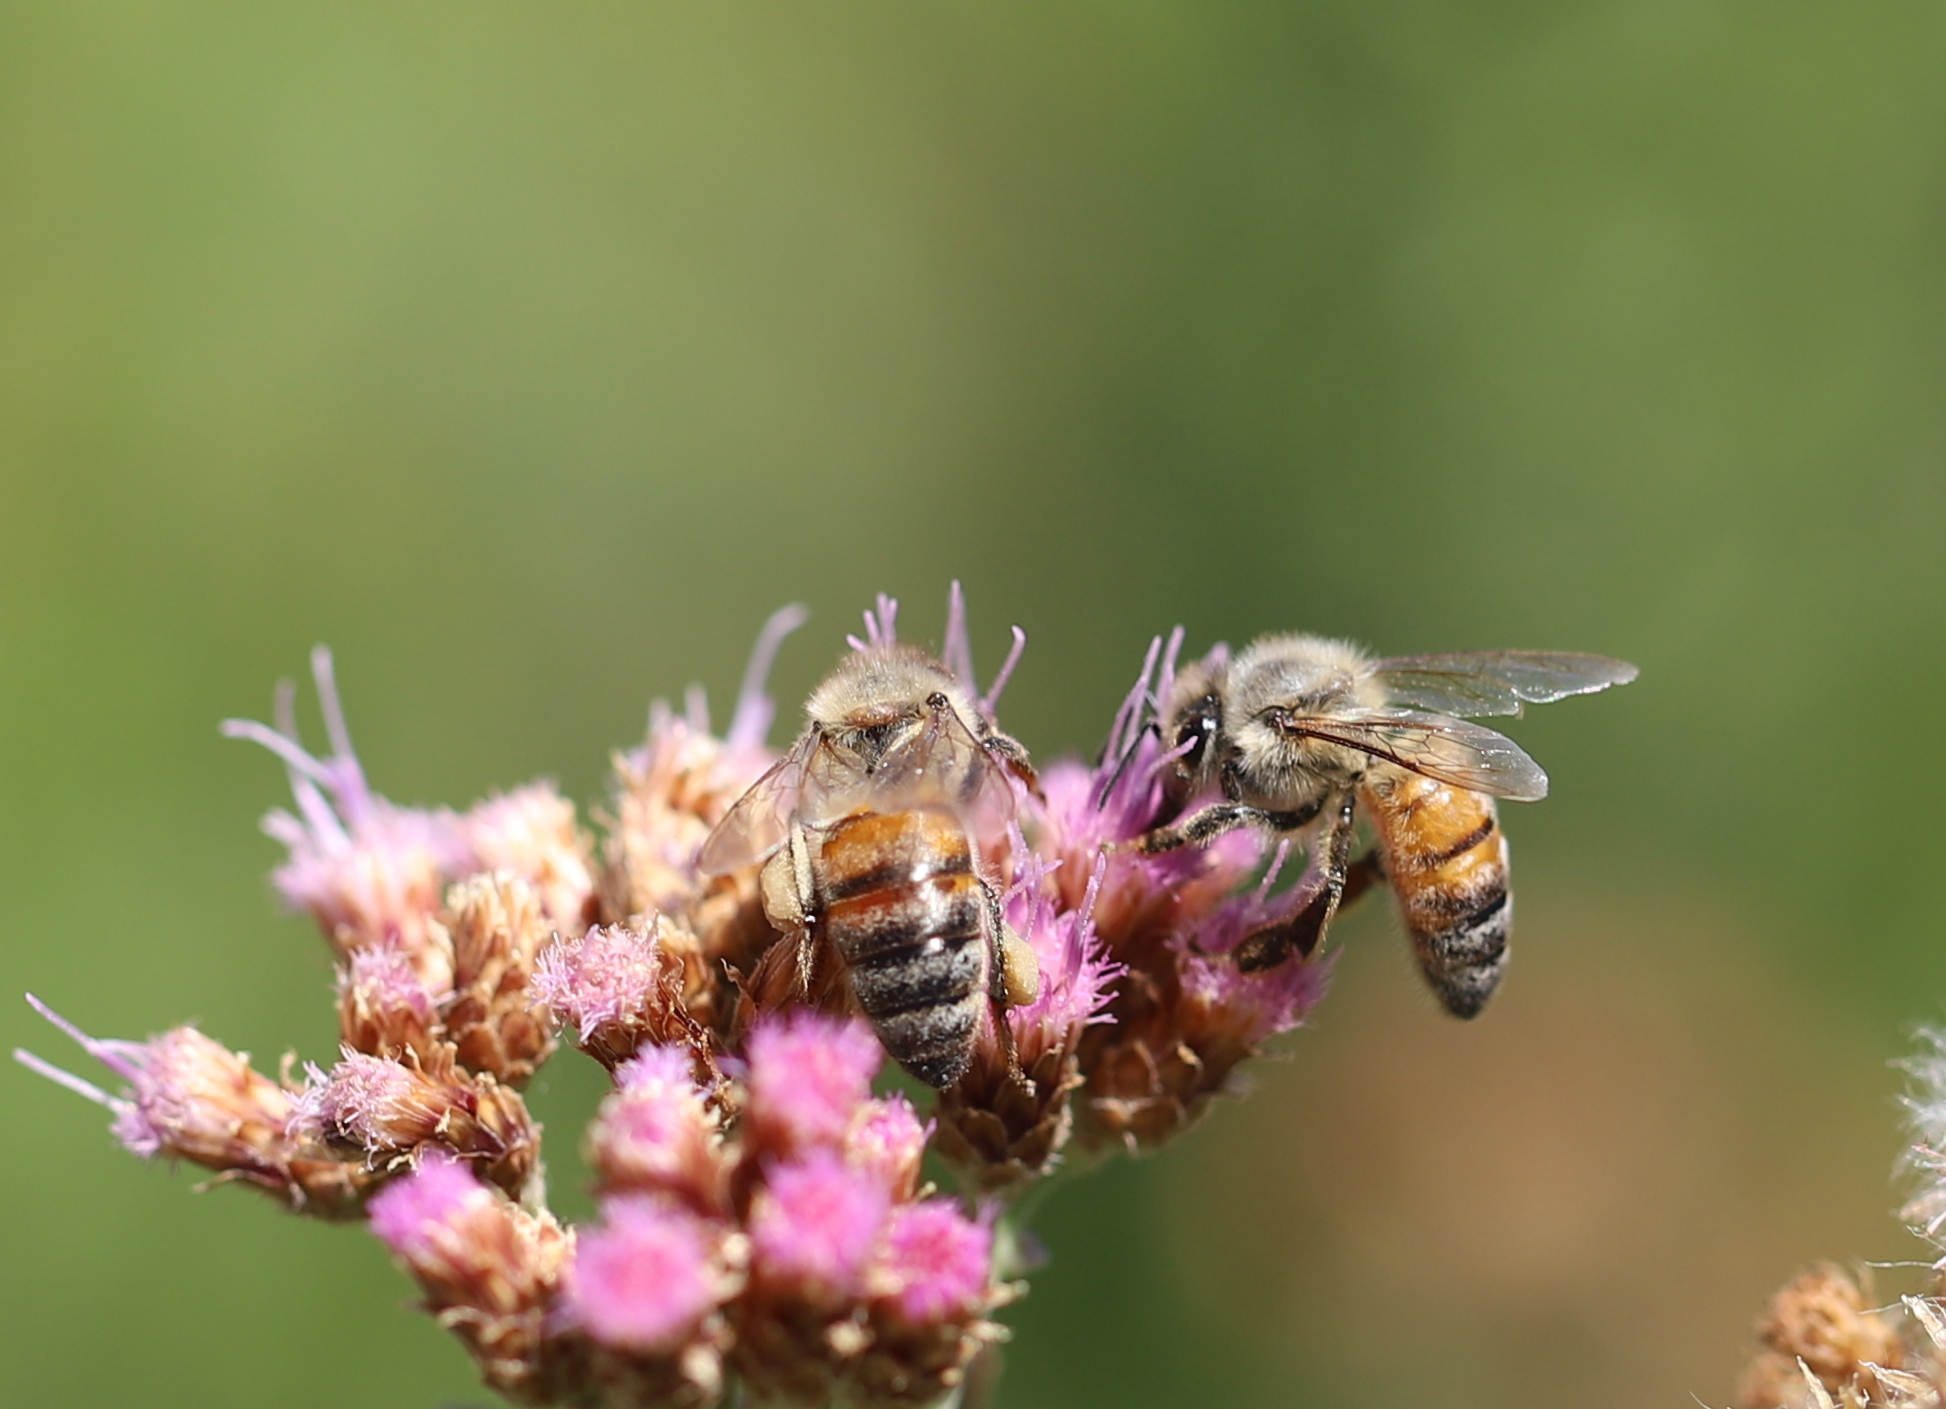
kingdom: Animalia
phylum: Arthropoda
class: Insecta
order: Hymenoptera
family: Apidae
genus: Apis
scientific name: Apis mellifera
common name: Honey bee
